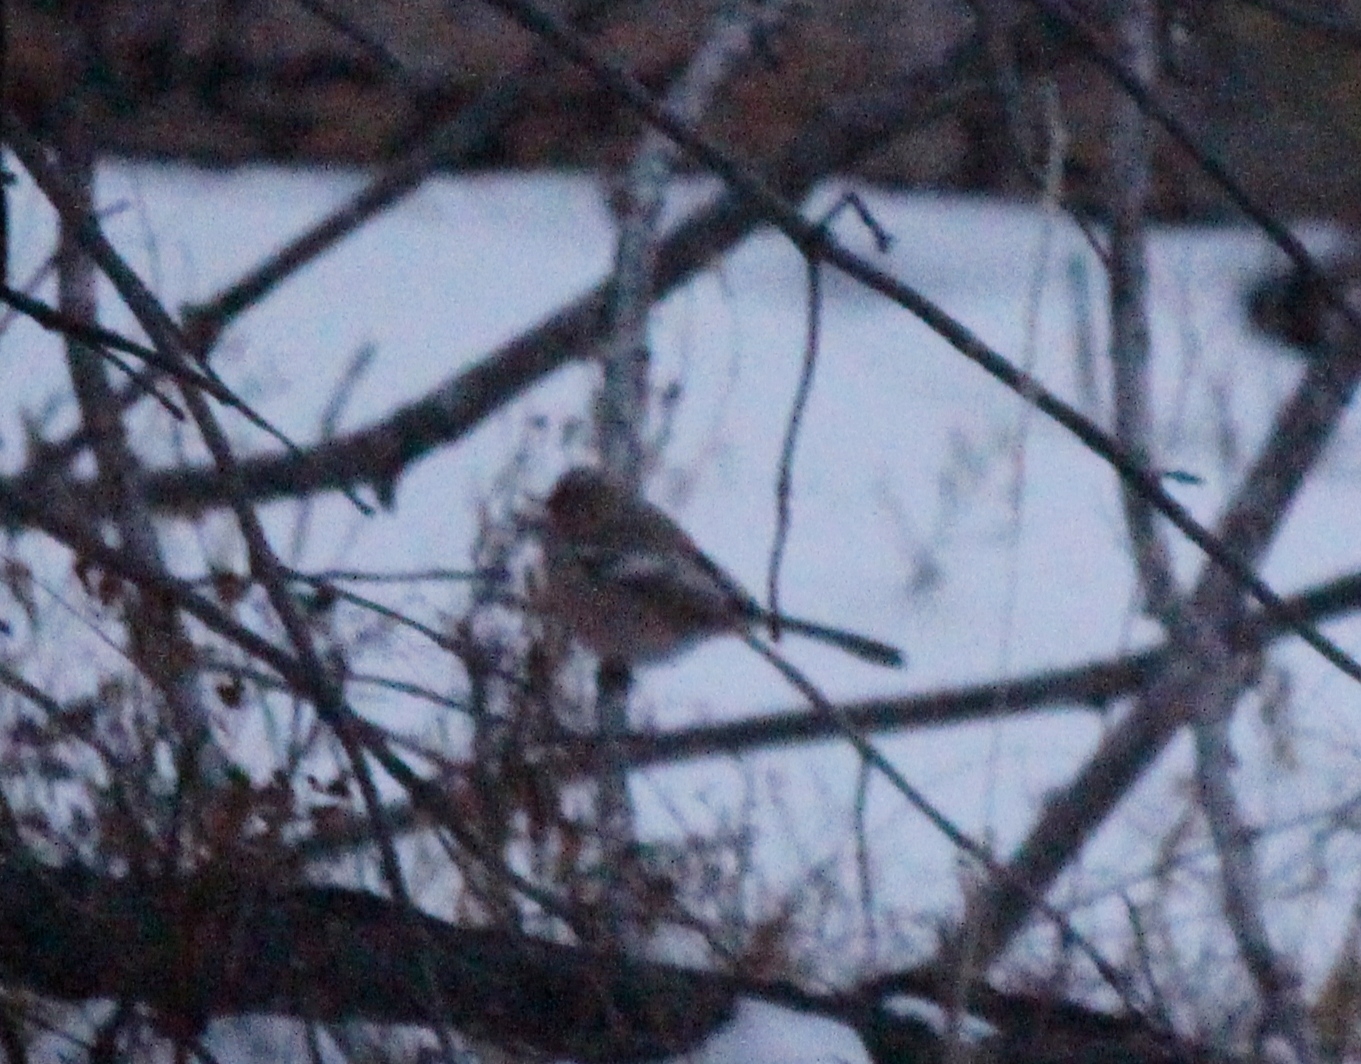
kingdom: Animalia
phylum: Chordata
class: Aves
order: Passeriformes
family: Fringillidae
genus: Carpodacus
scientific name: Carpodacus sibiricus
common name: Long-tailed rosefinch
